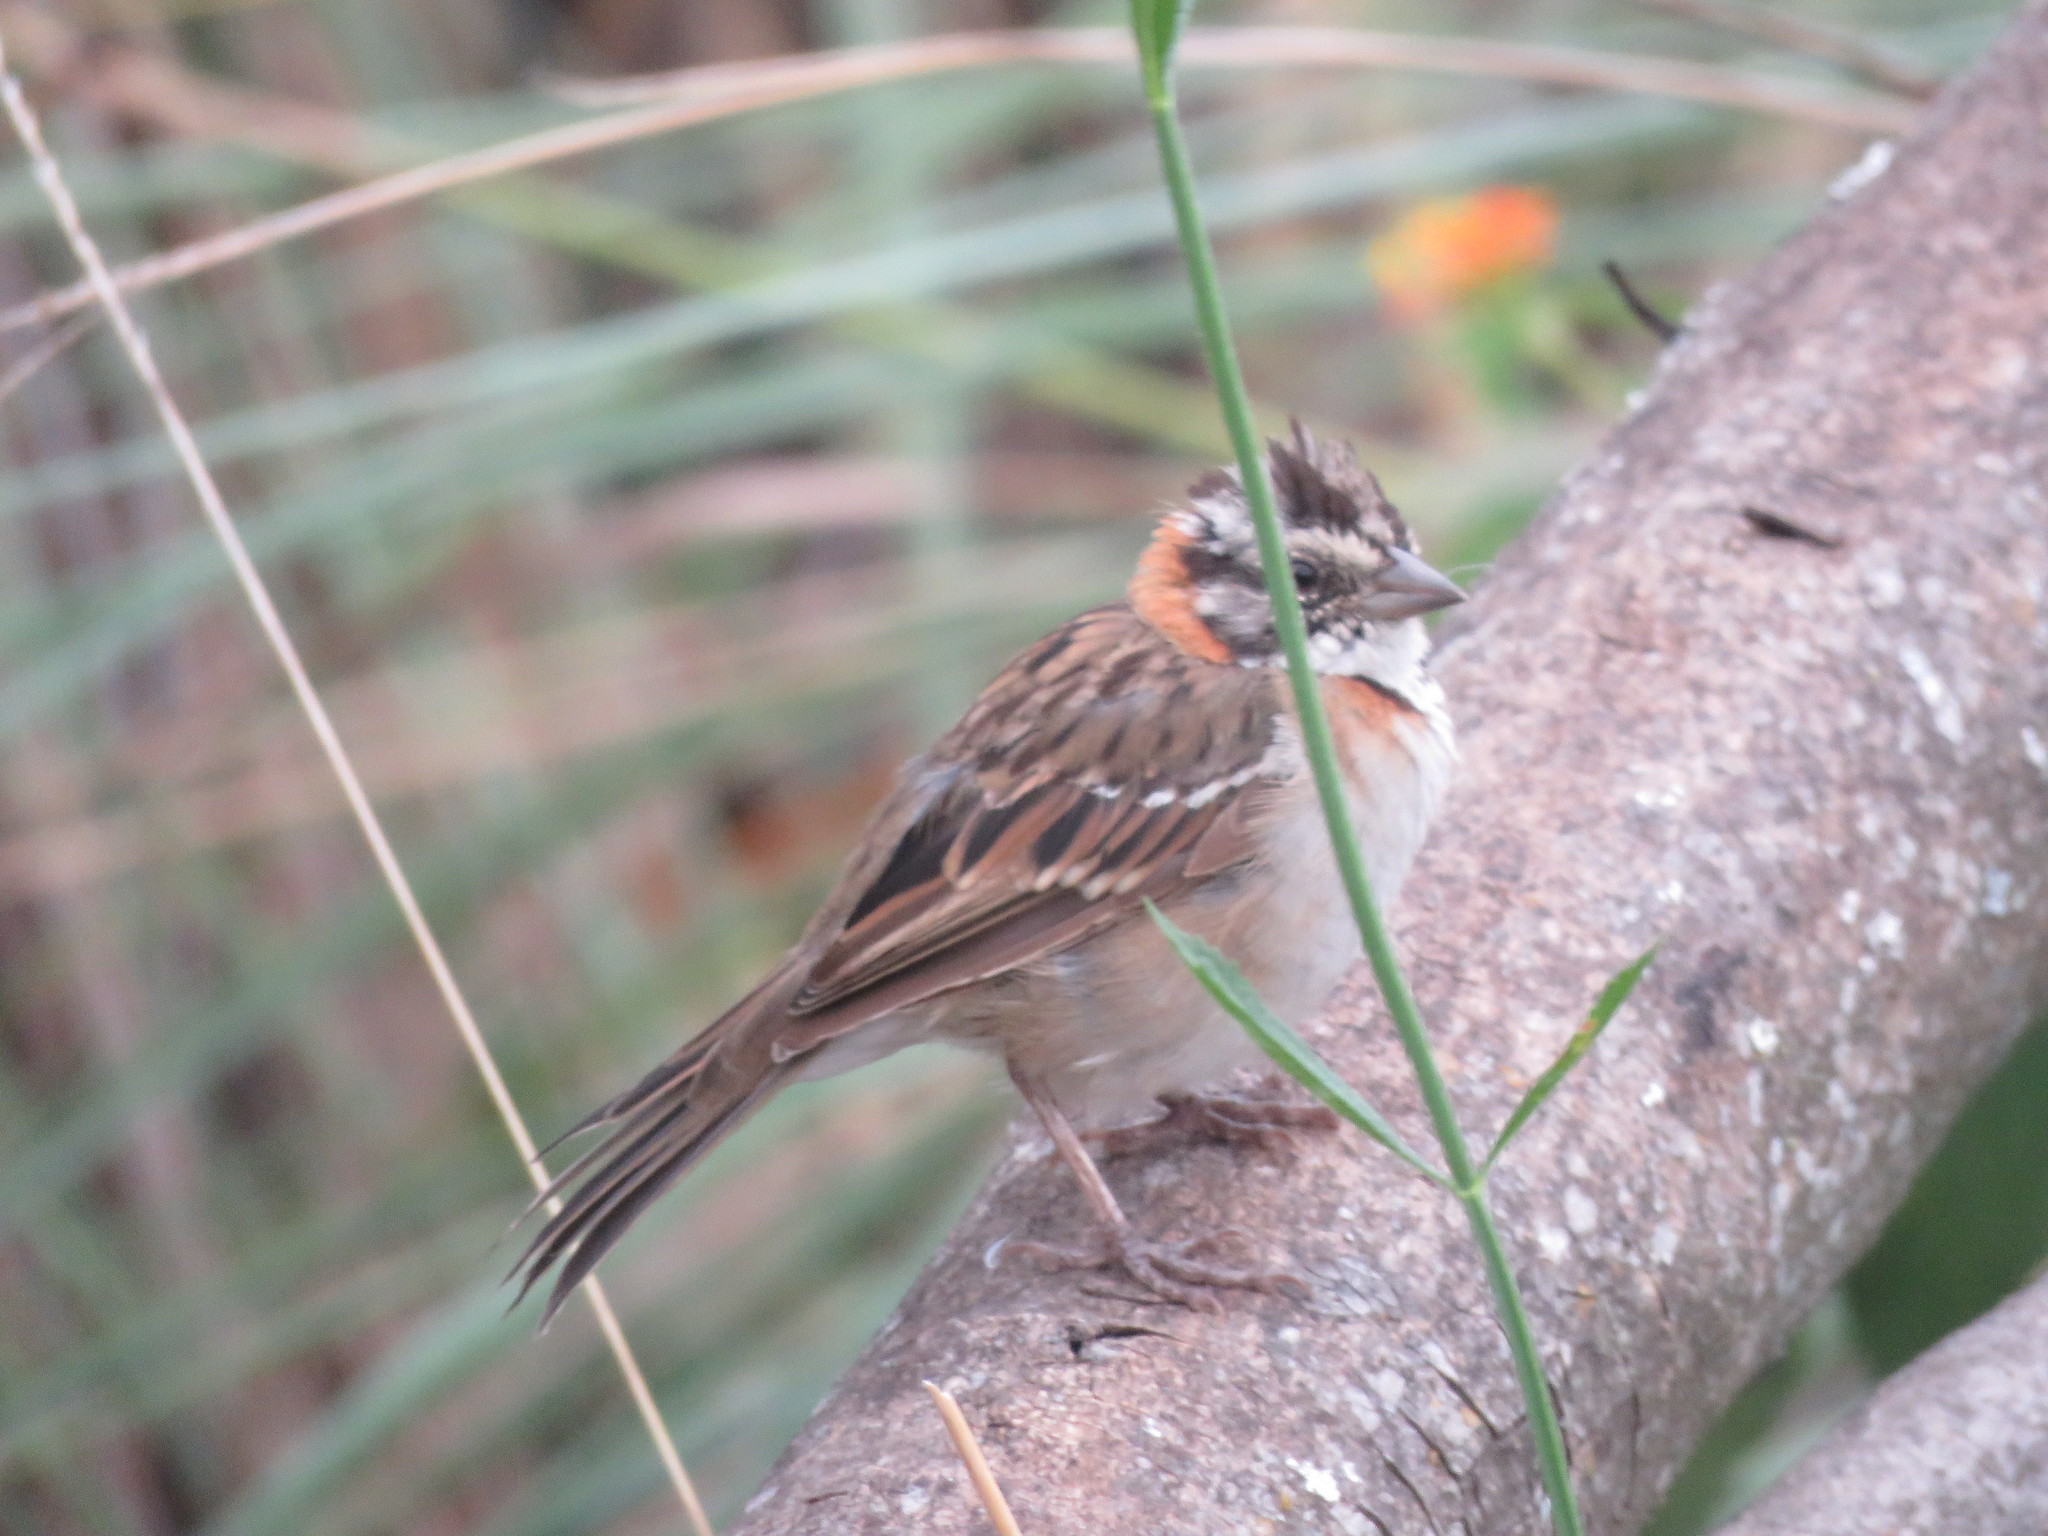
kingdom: Animalia
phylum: Chordata
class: Aves
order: Passeriformes
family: Passerellidae
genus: Zonotrichia
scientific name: Zonotrichia capensis
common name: Rufous-collared sparrow
